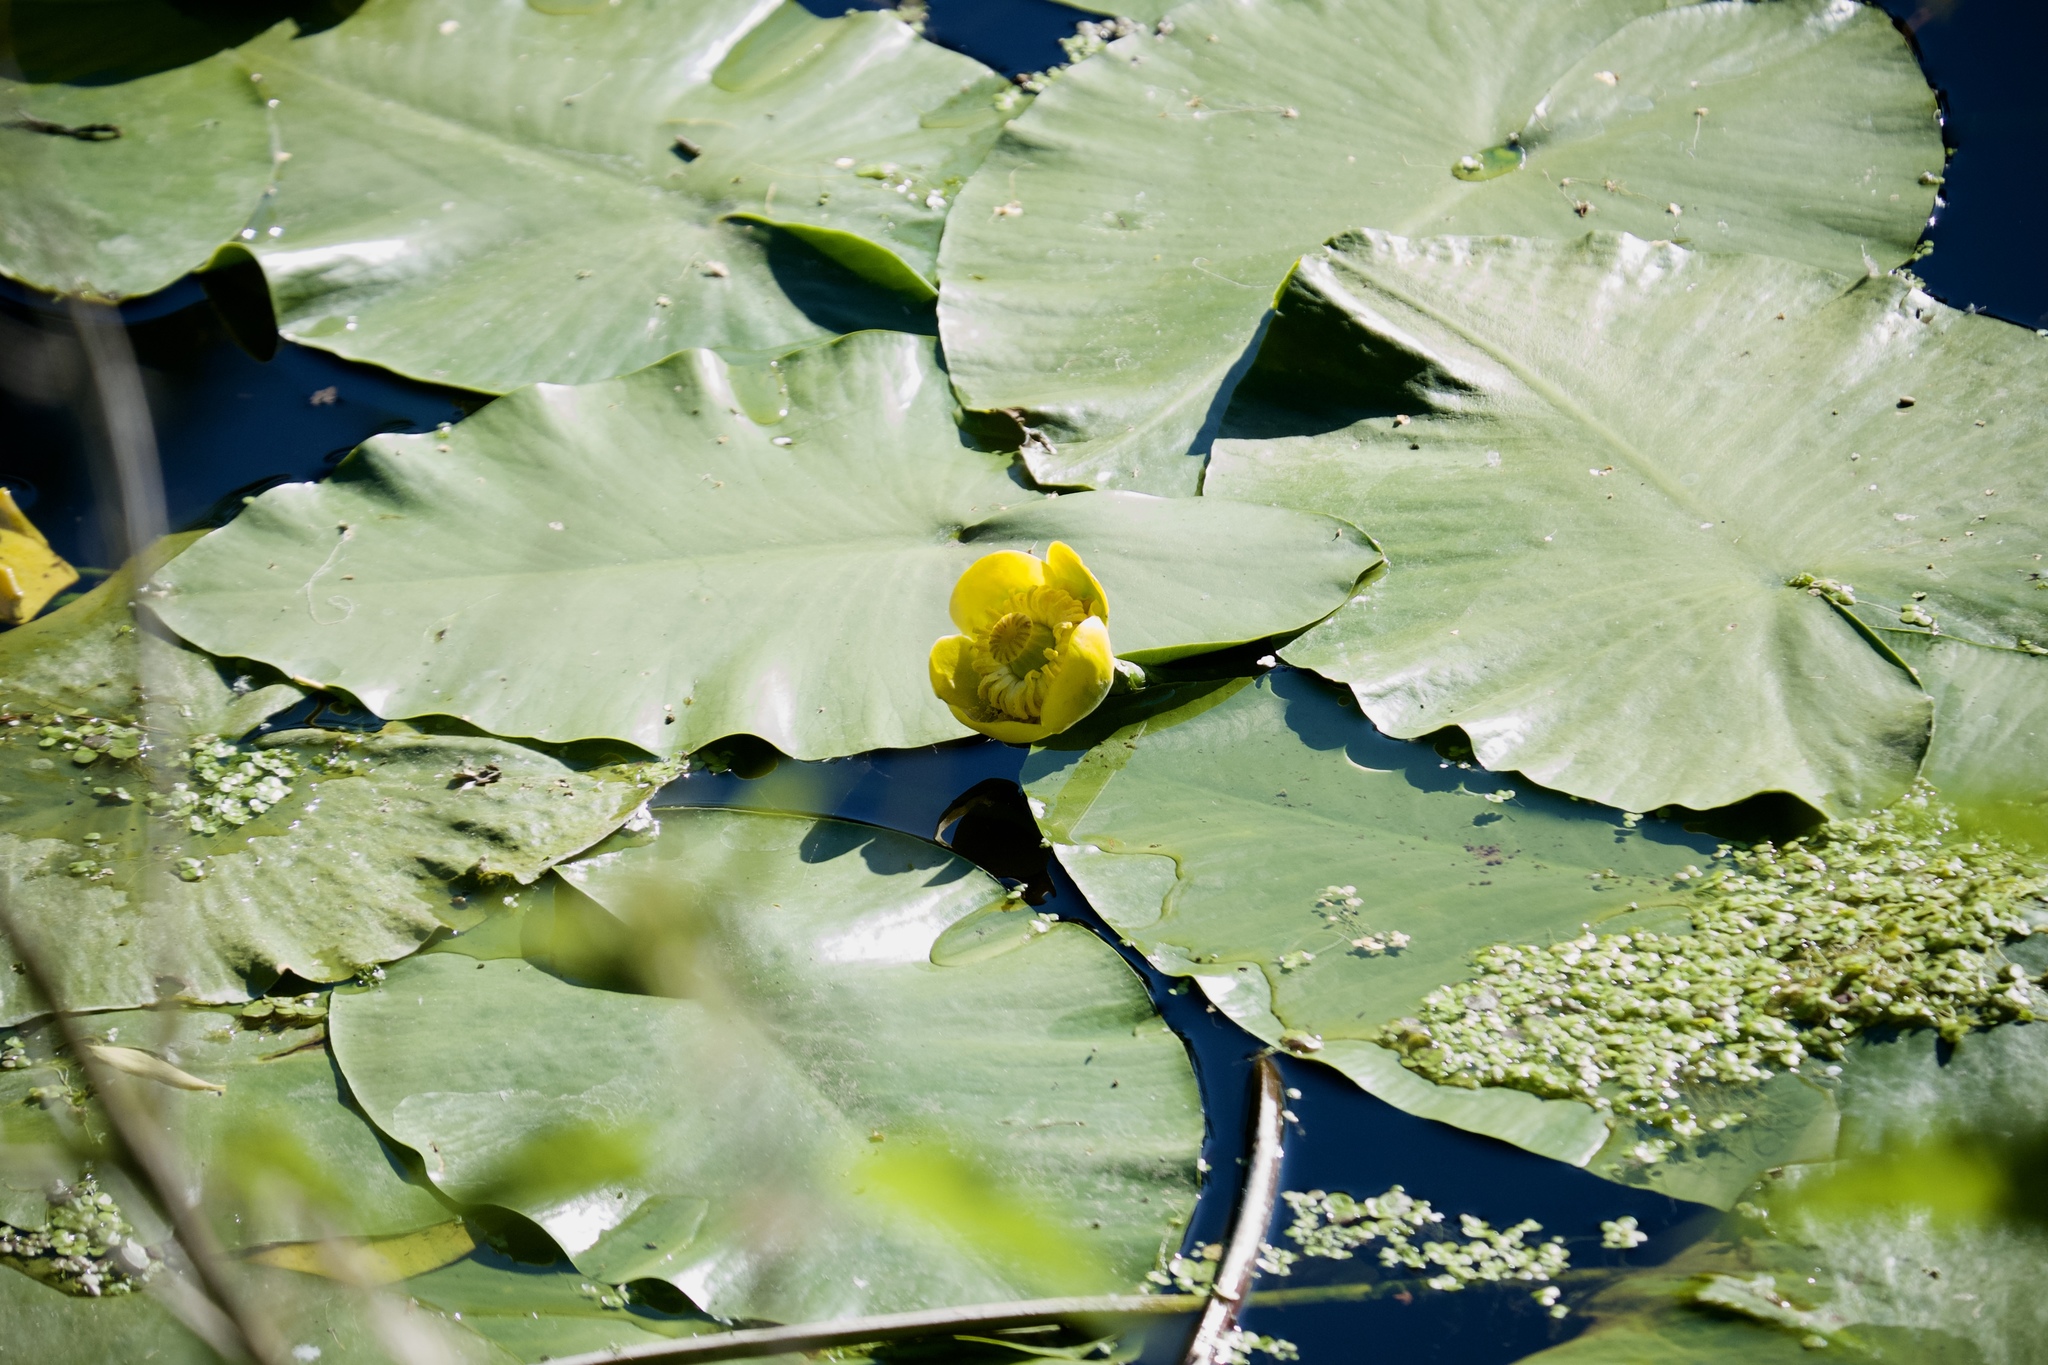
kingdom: Plantae
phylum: Tracheophyta
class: Magnoliopsida
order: Nymphaeales
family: Nymphaeaceae
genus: Nuphar
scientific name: Nuphar lutea
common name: Yellow water-lily
